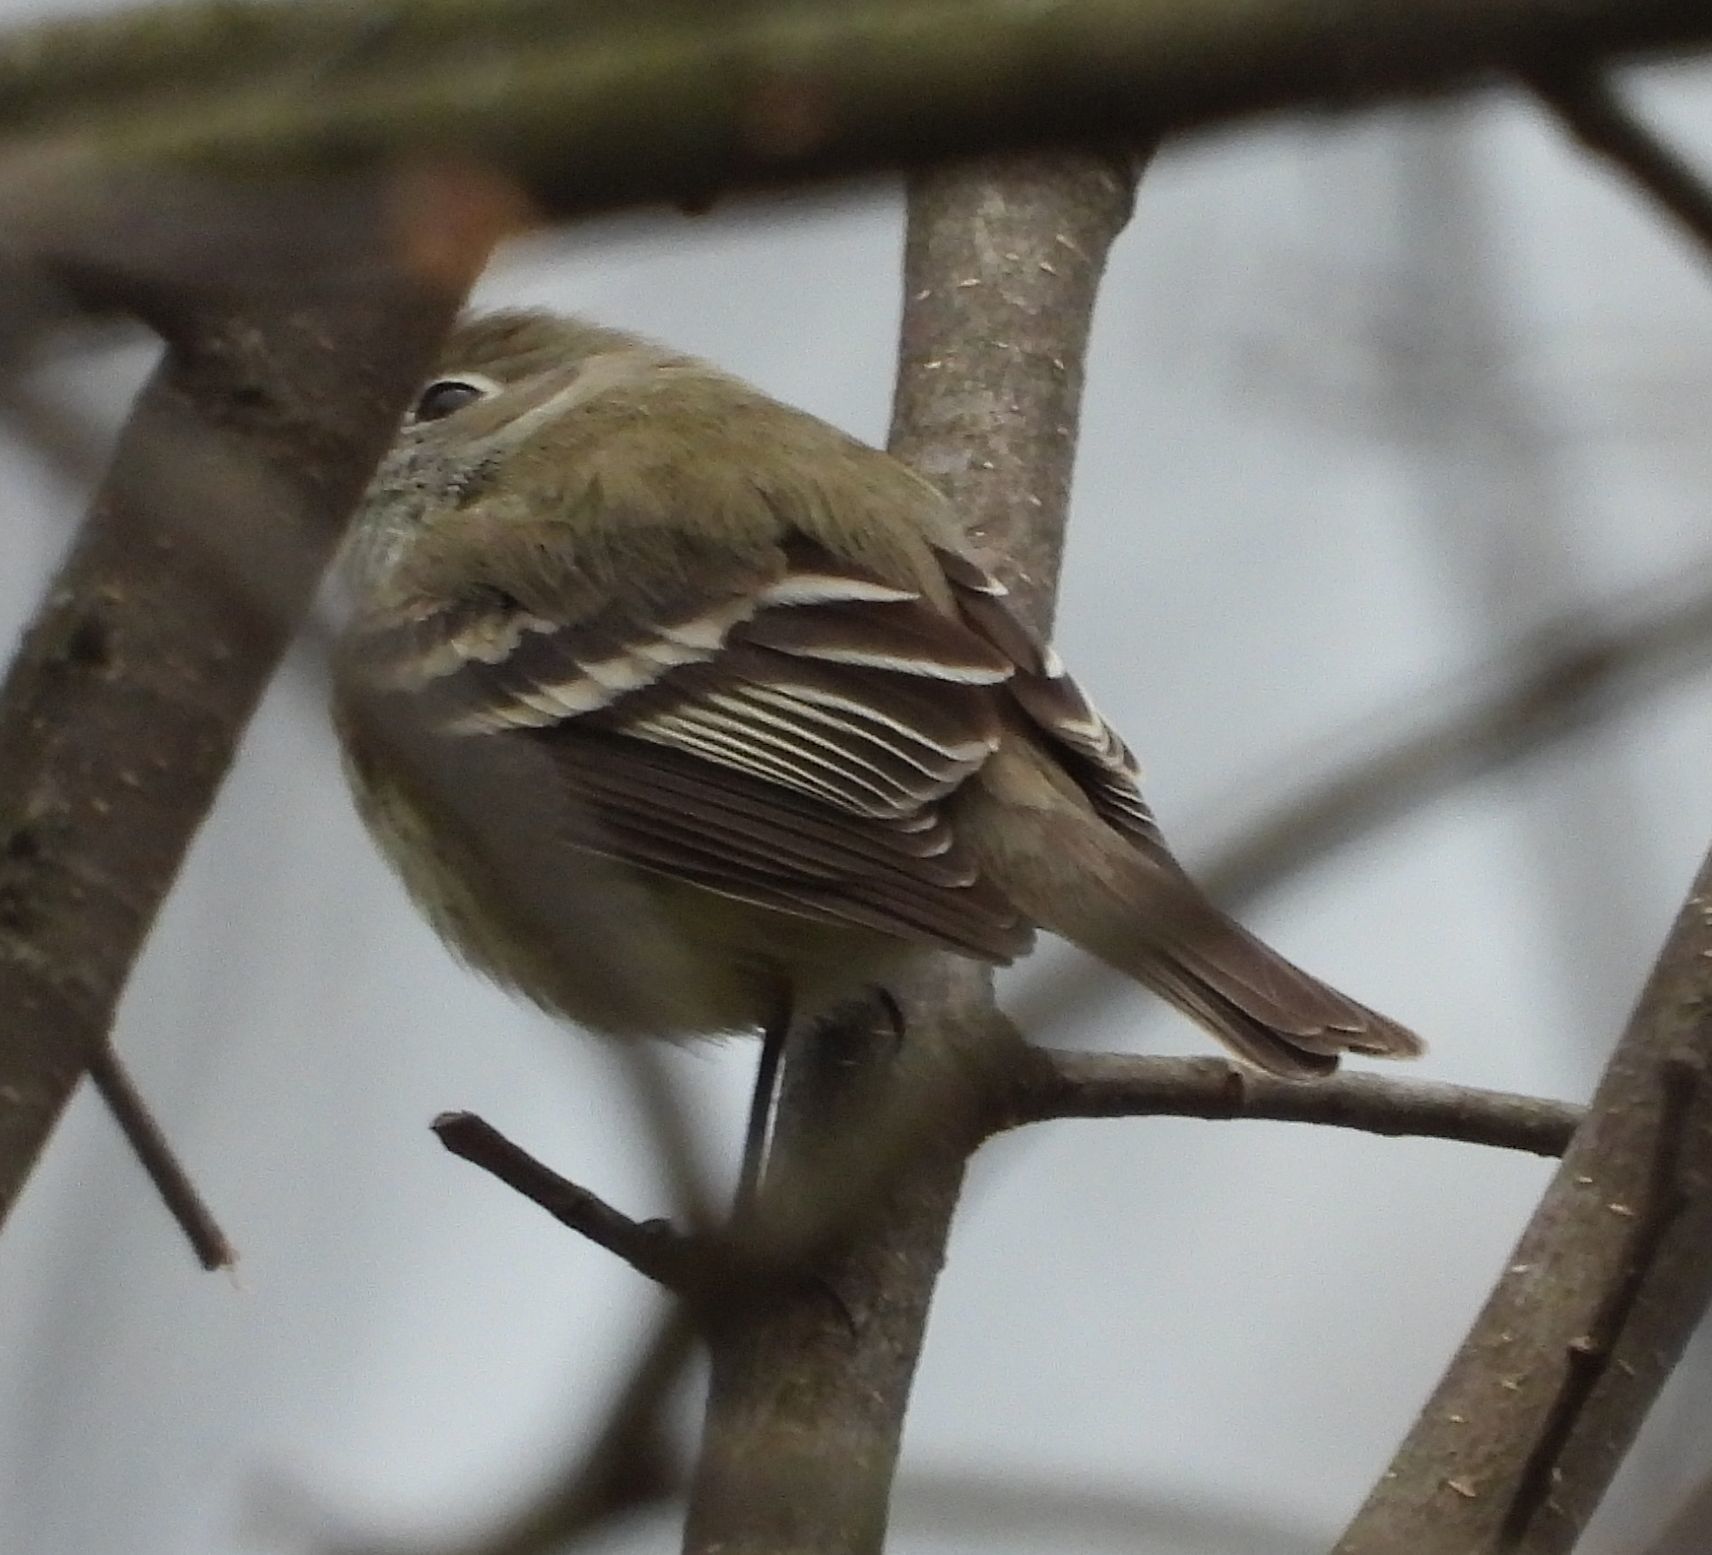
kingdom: Animalia
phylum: Chordata
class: Aves
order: Passeriformes
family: Tyrannidae
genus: Empidonax
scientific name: Empidonax minimus
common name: Least flycatcher
